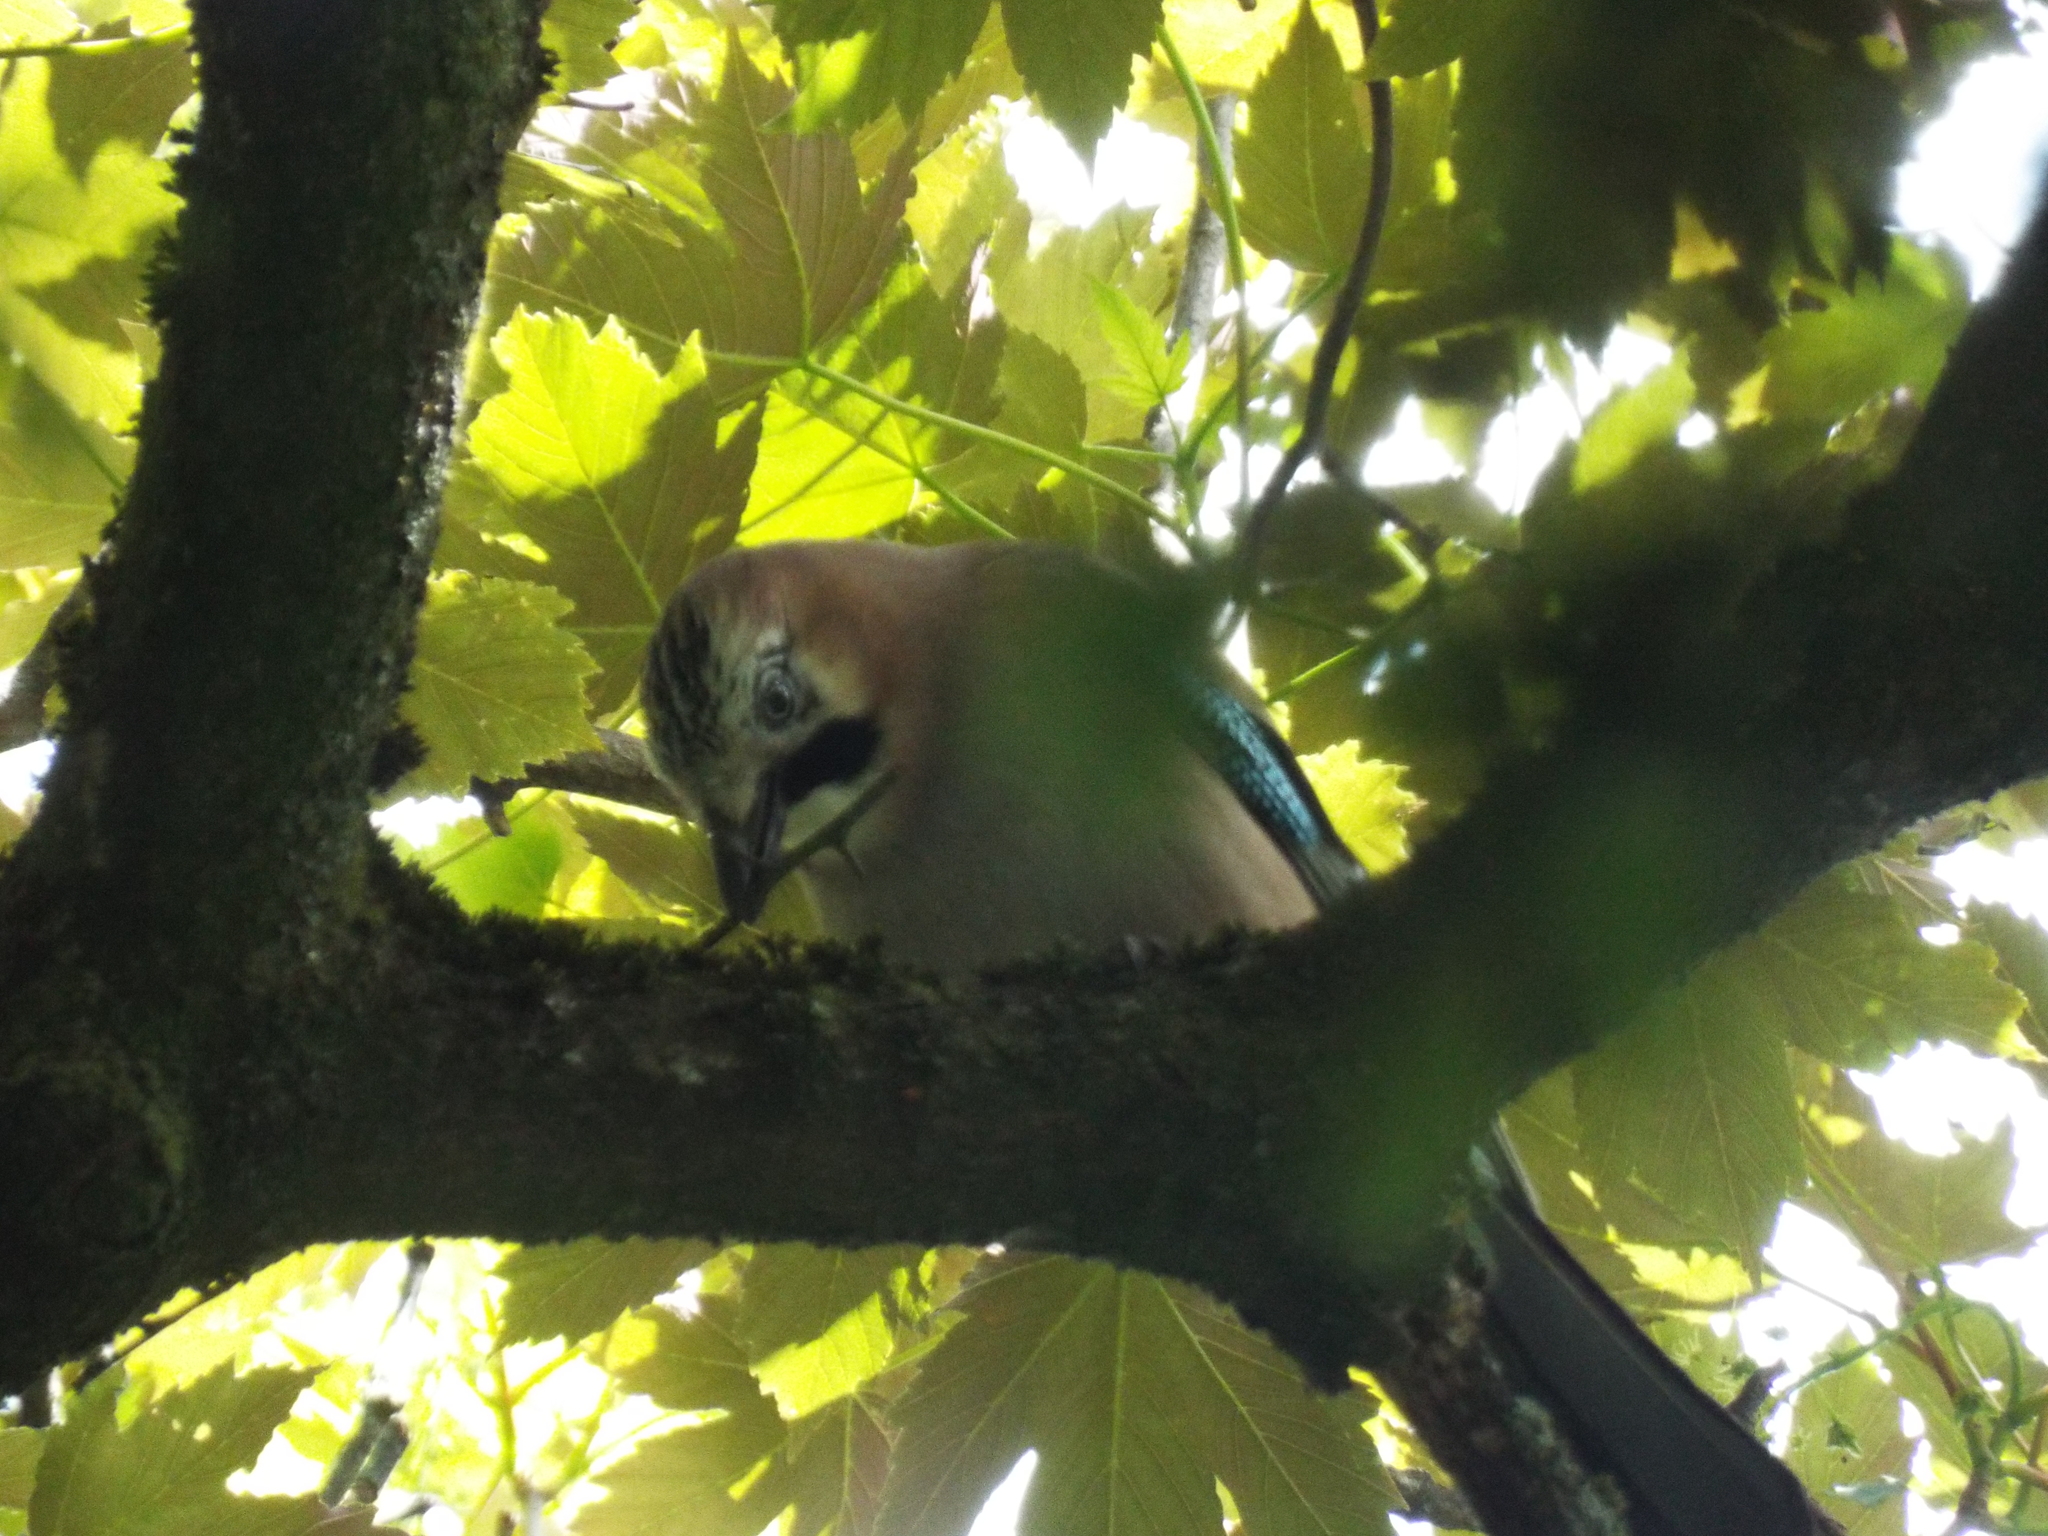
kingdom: Animalia
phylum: Chordata
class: Aves
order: Passeriformes
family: Corvidae
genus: Garrulus
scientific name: Garrulus glandarius
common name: Eurasian jay
